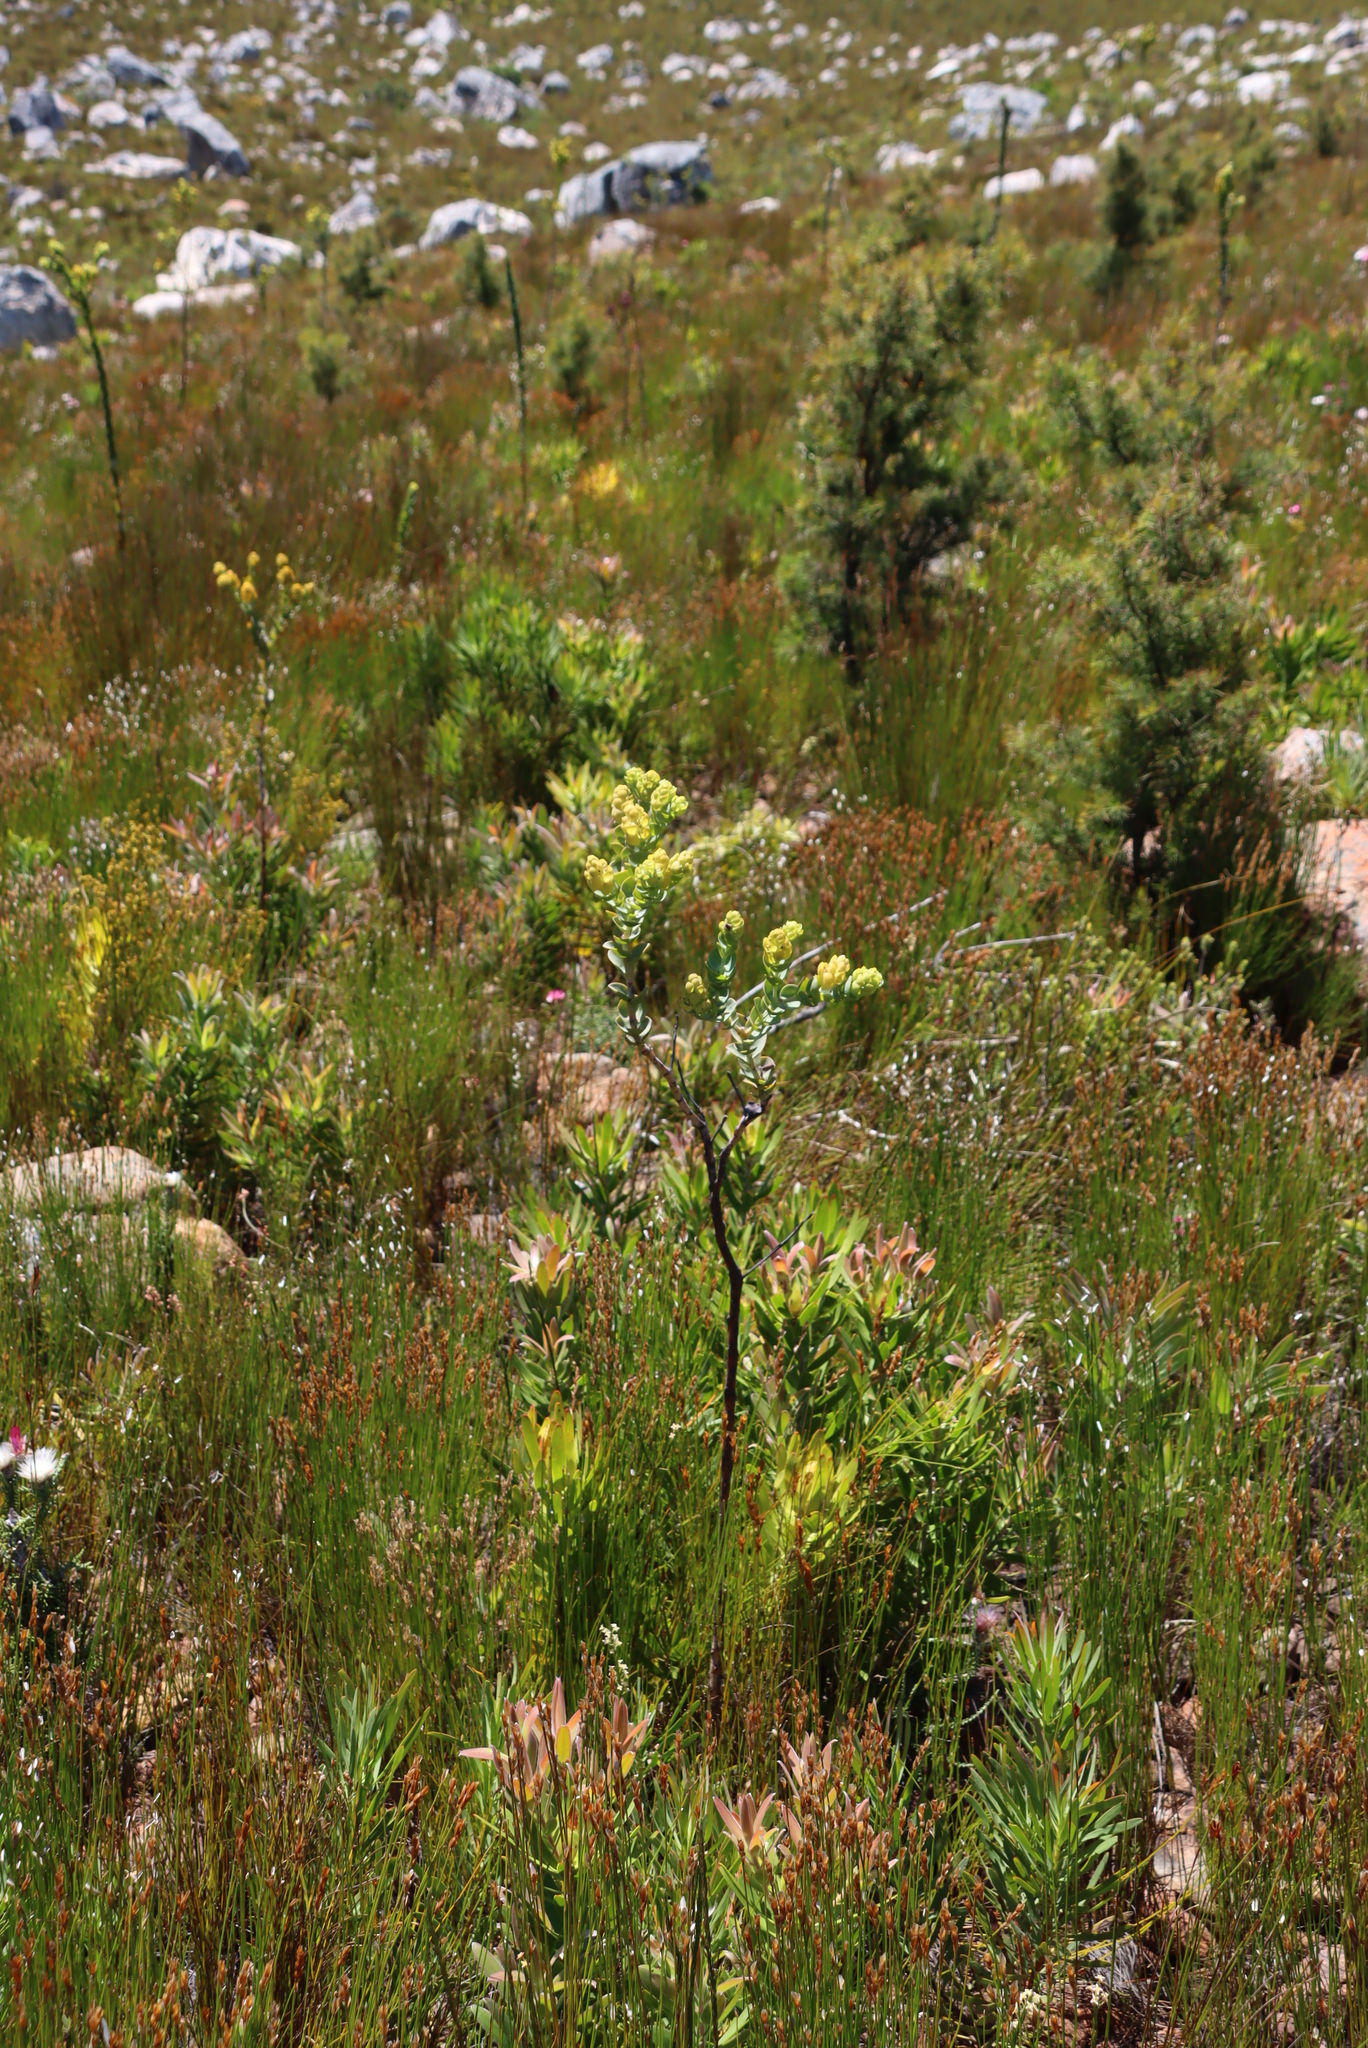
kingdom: Plantae
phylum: Tracheophyta
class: Magnoliopsida
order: Santalales
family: Thesiaceae
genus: Thesium
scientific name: Thesium euphorbioides
